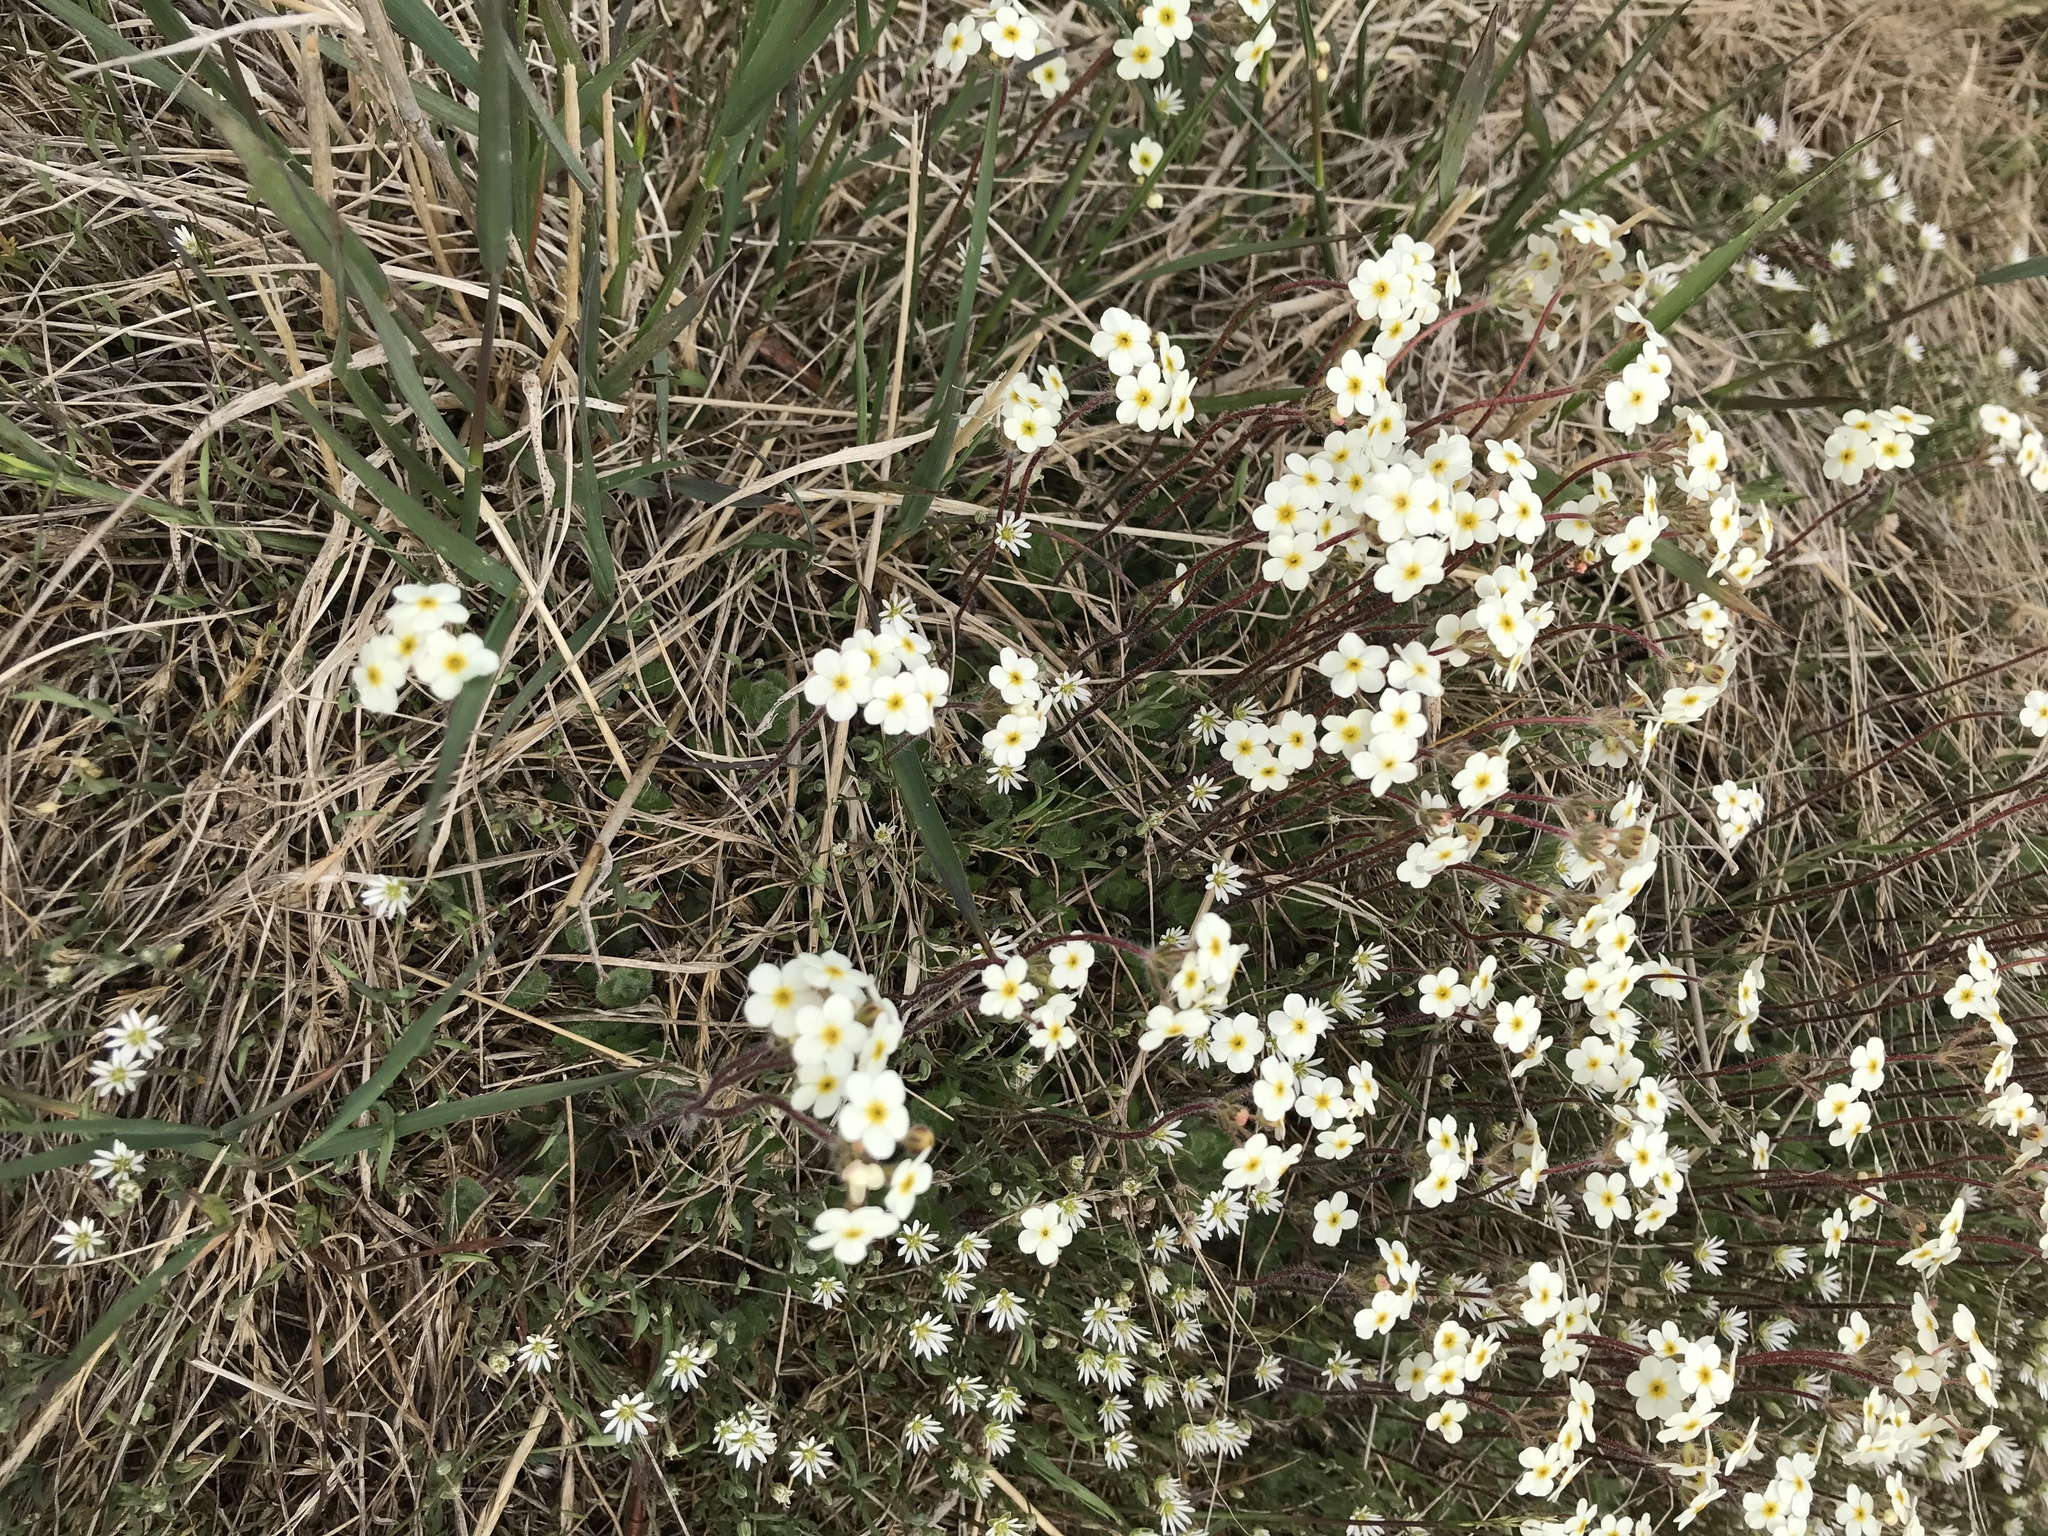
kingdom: Plantae
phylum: Tracheophyta
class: Magnoliopsida
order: Ericales
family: Primulaceae
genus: Androsace
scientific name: Androsace chamaejasme
